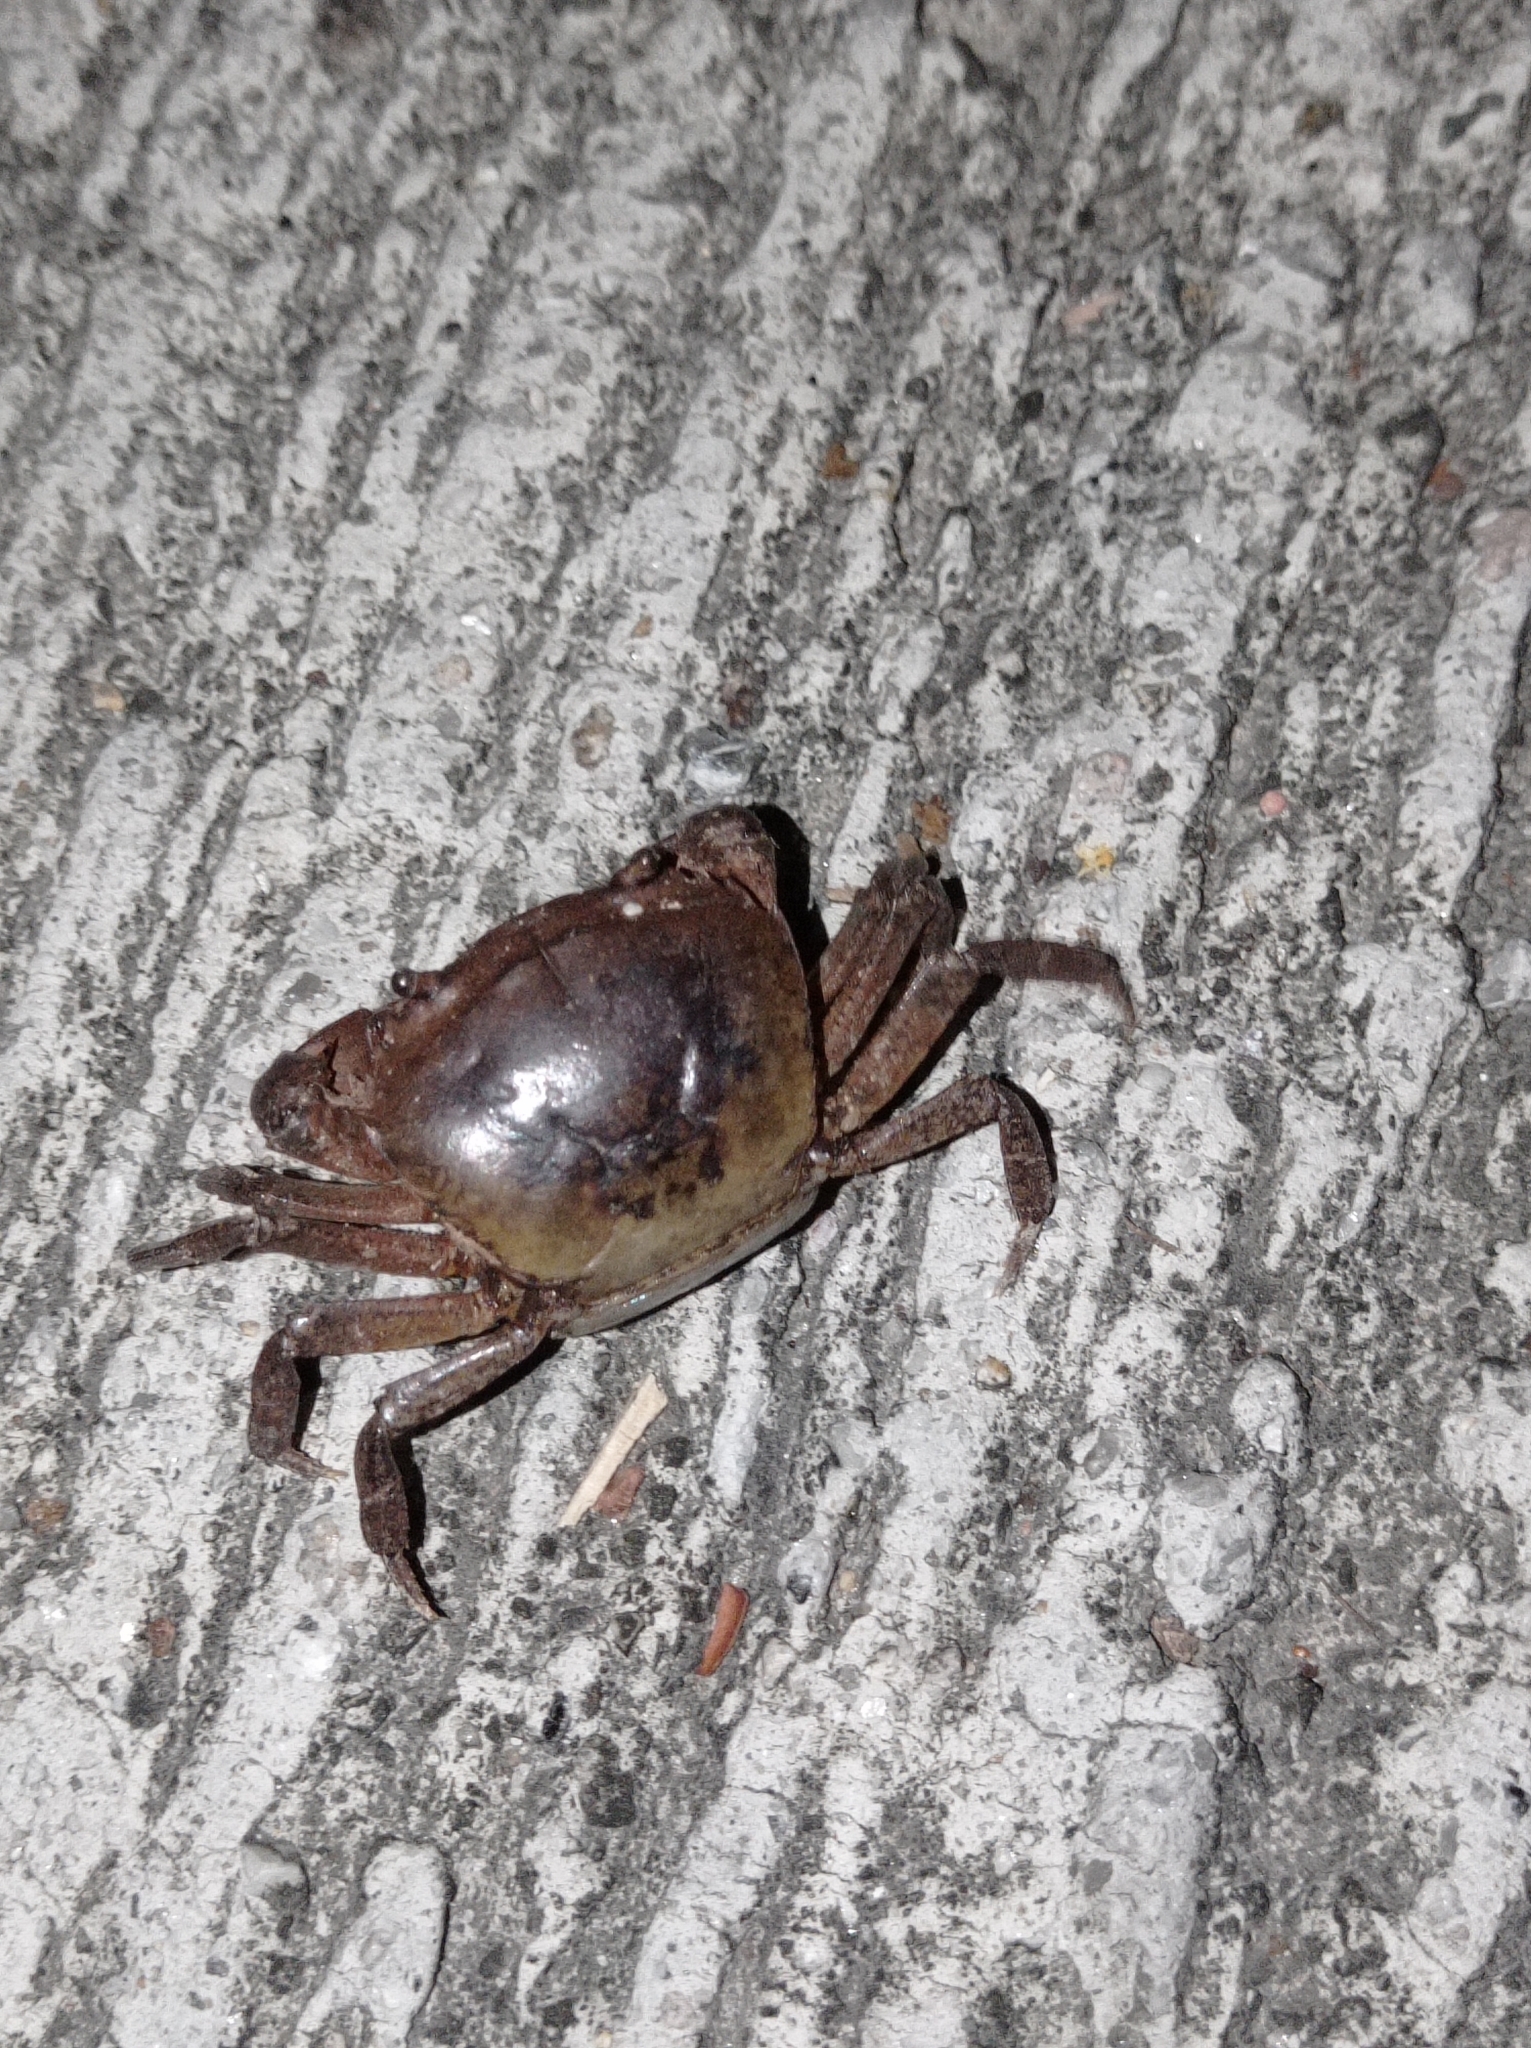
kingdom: Animalia
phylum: Arthropoda
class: Malacostraca
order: Decapoda
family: Gecarcinucidae
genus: Somanniathelphusa
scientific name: Somanniathelphusa zanklon
